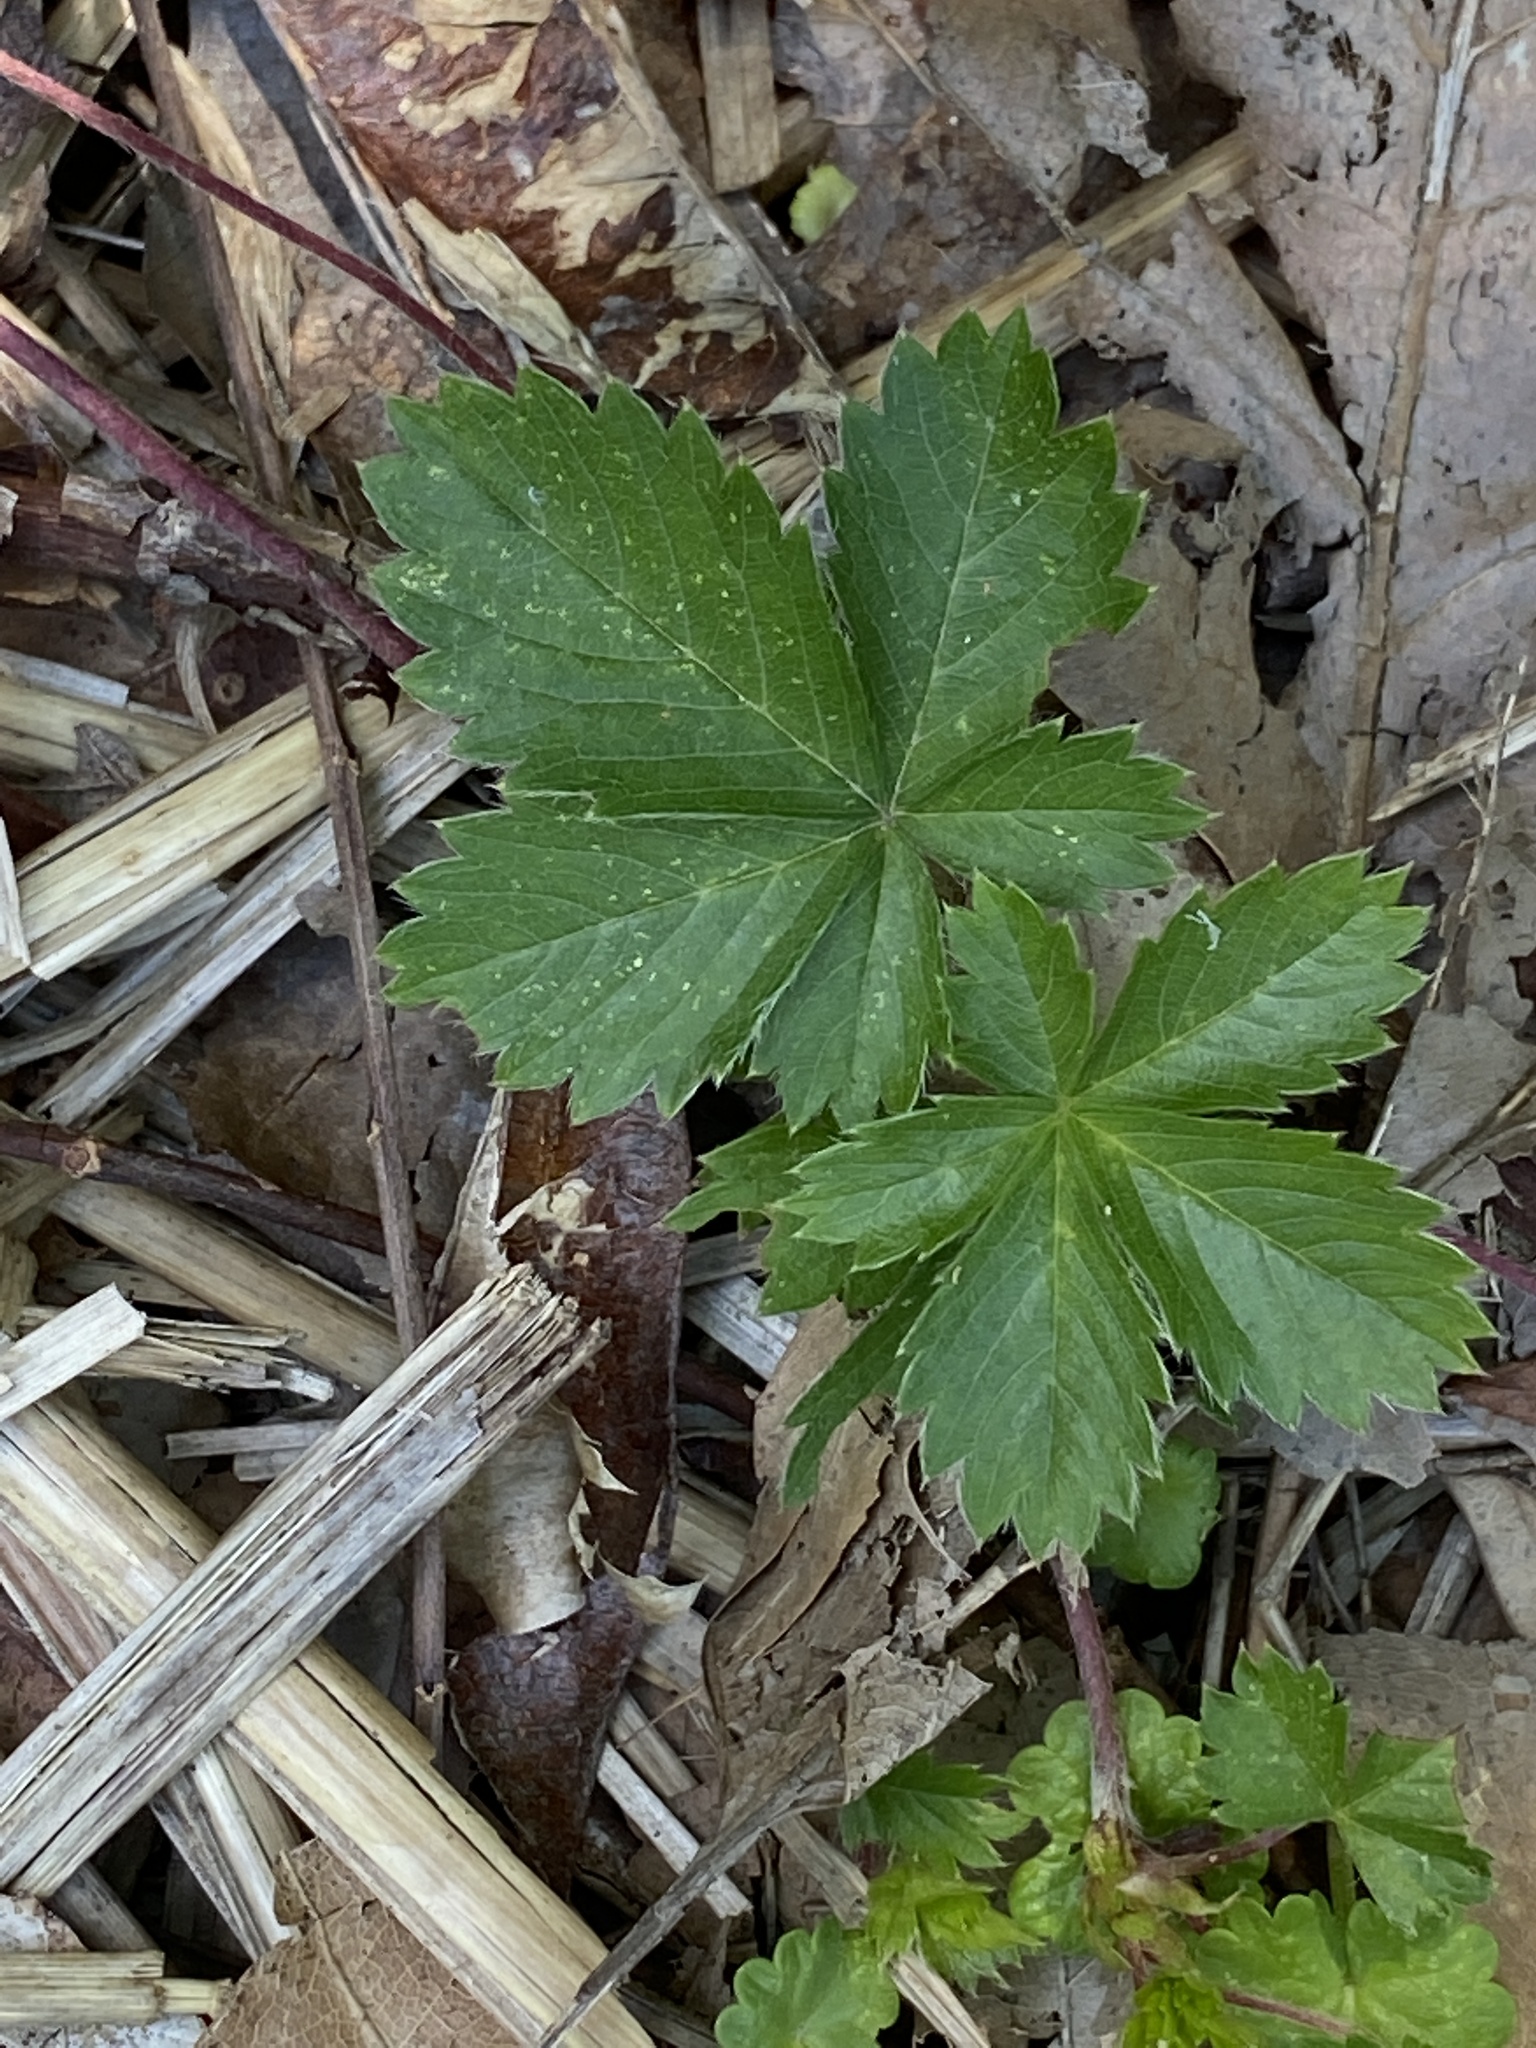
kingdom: Plantae
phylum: Tracheophyta
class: Magnoliopsida
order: Rosales
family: Rosaceae
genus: Potentilla
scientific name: Potentilla canadensis
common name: Canada cinquefoil
